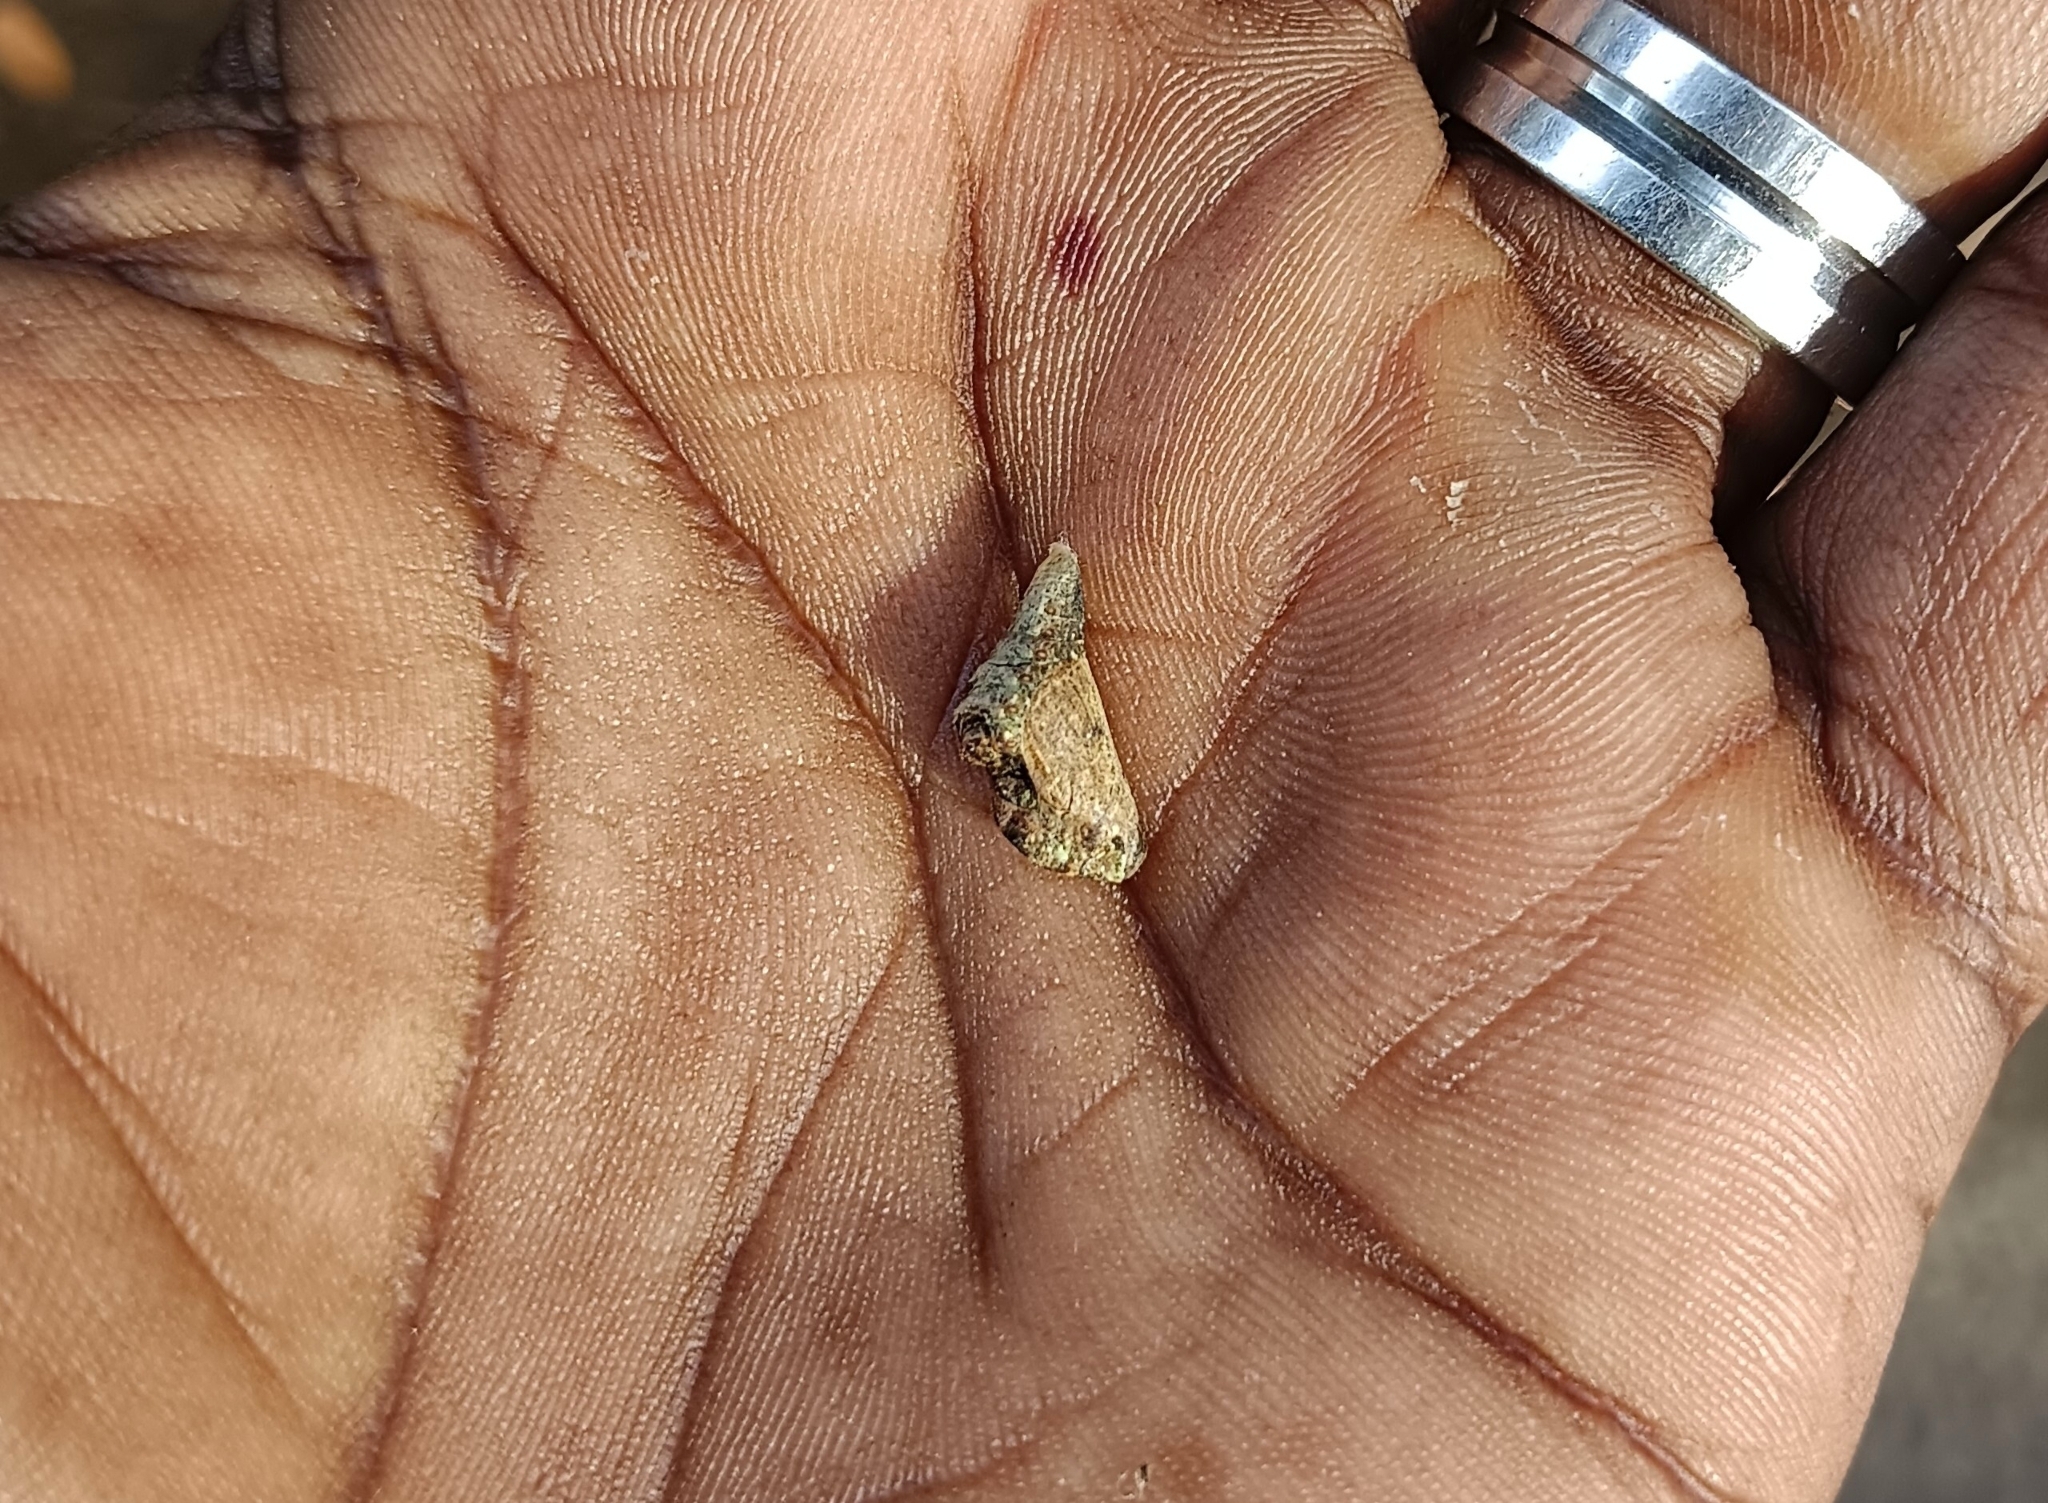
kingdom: Animalia
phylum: Arthropoda
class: Insecta
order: Lepidoptera
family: Lycaenidae
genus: Tajuria
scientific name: Tajuria cippus
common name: Peacock royal
